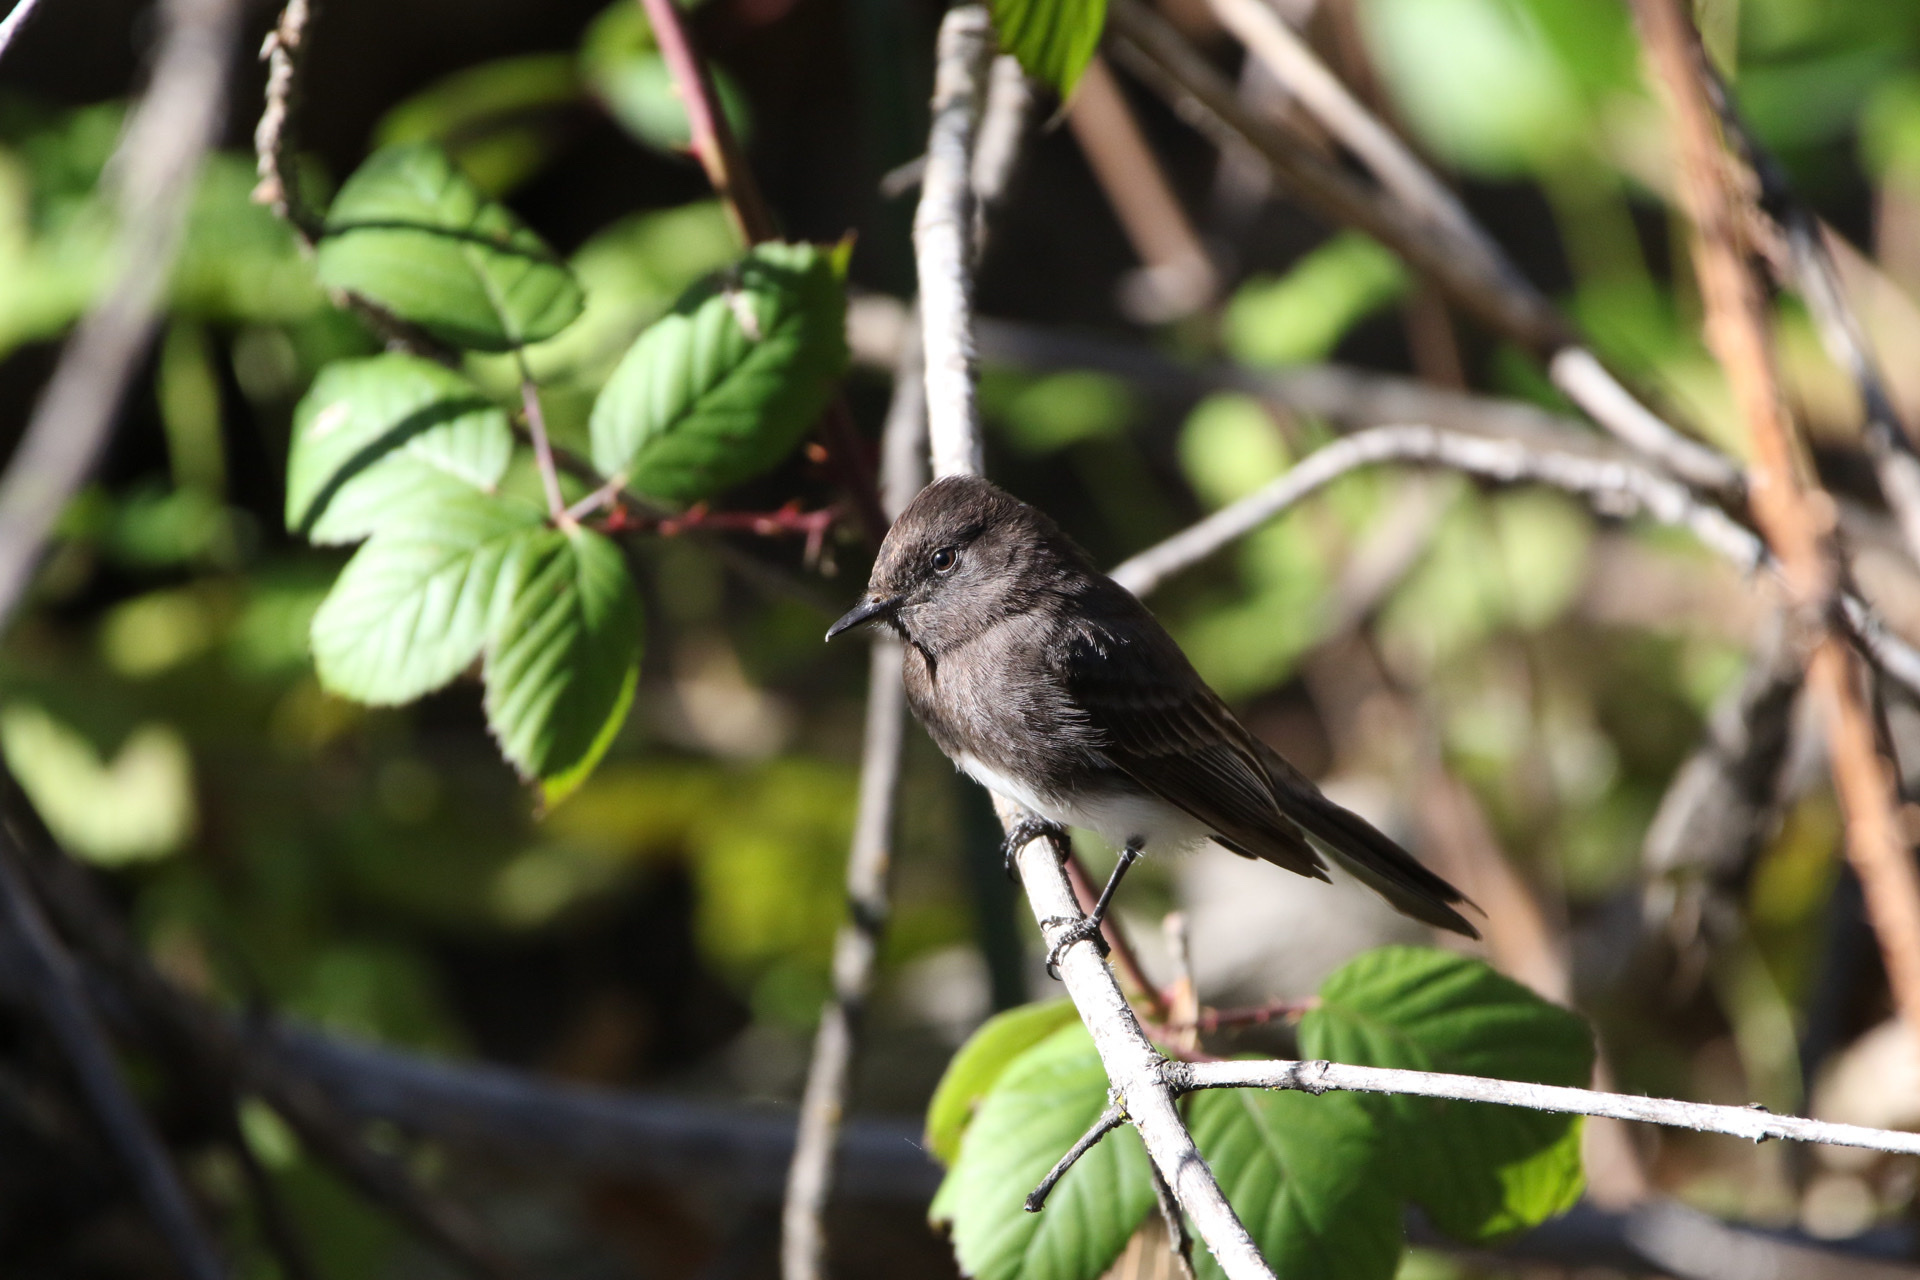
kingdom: Animalia
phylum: Chordata
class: Aves
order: Passeriformes
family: Tyrannidae
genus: Sayornis
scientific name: Sayornis nigricans
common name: Black phoebe
